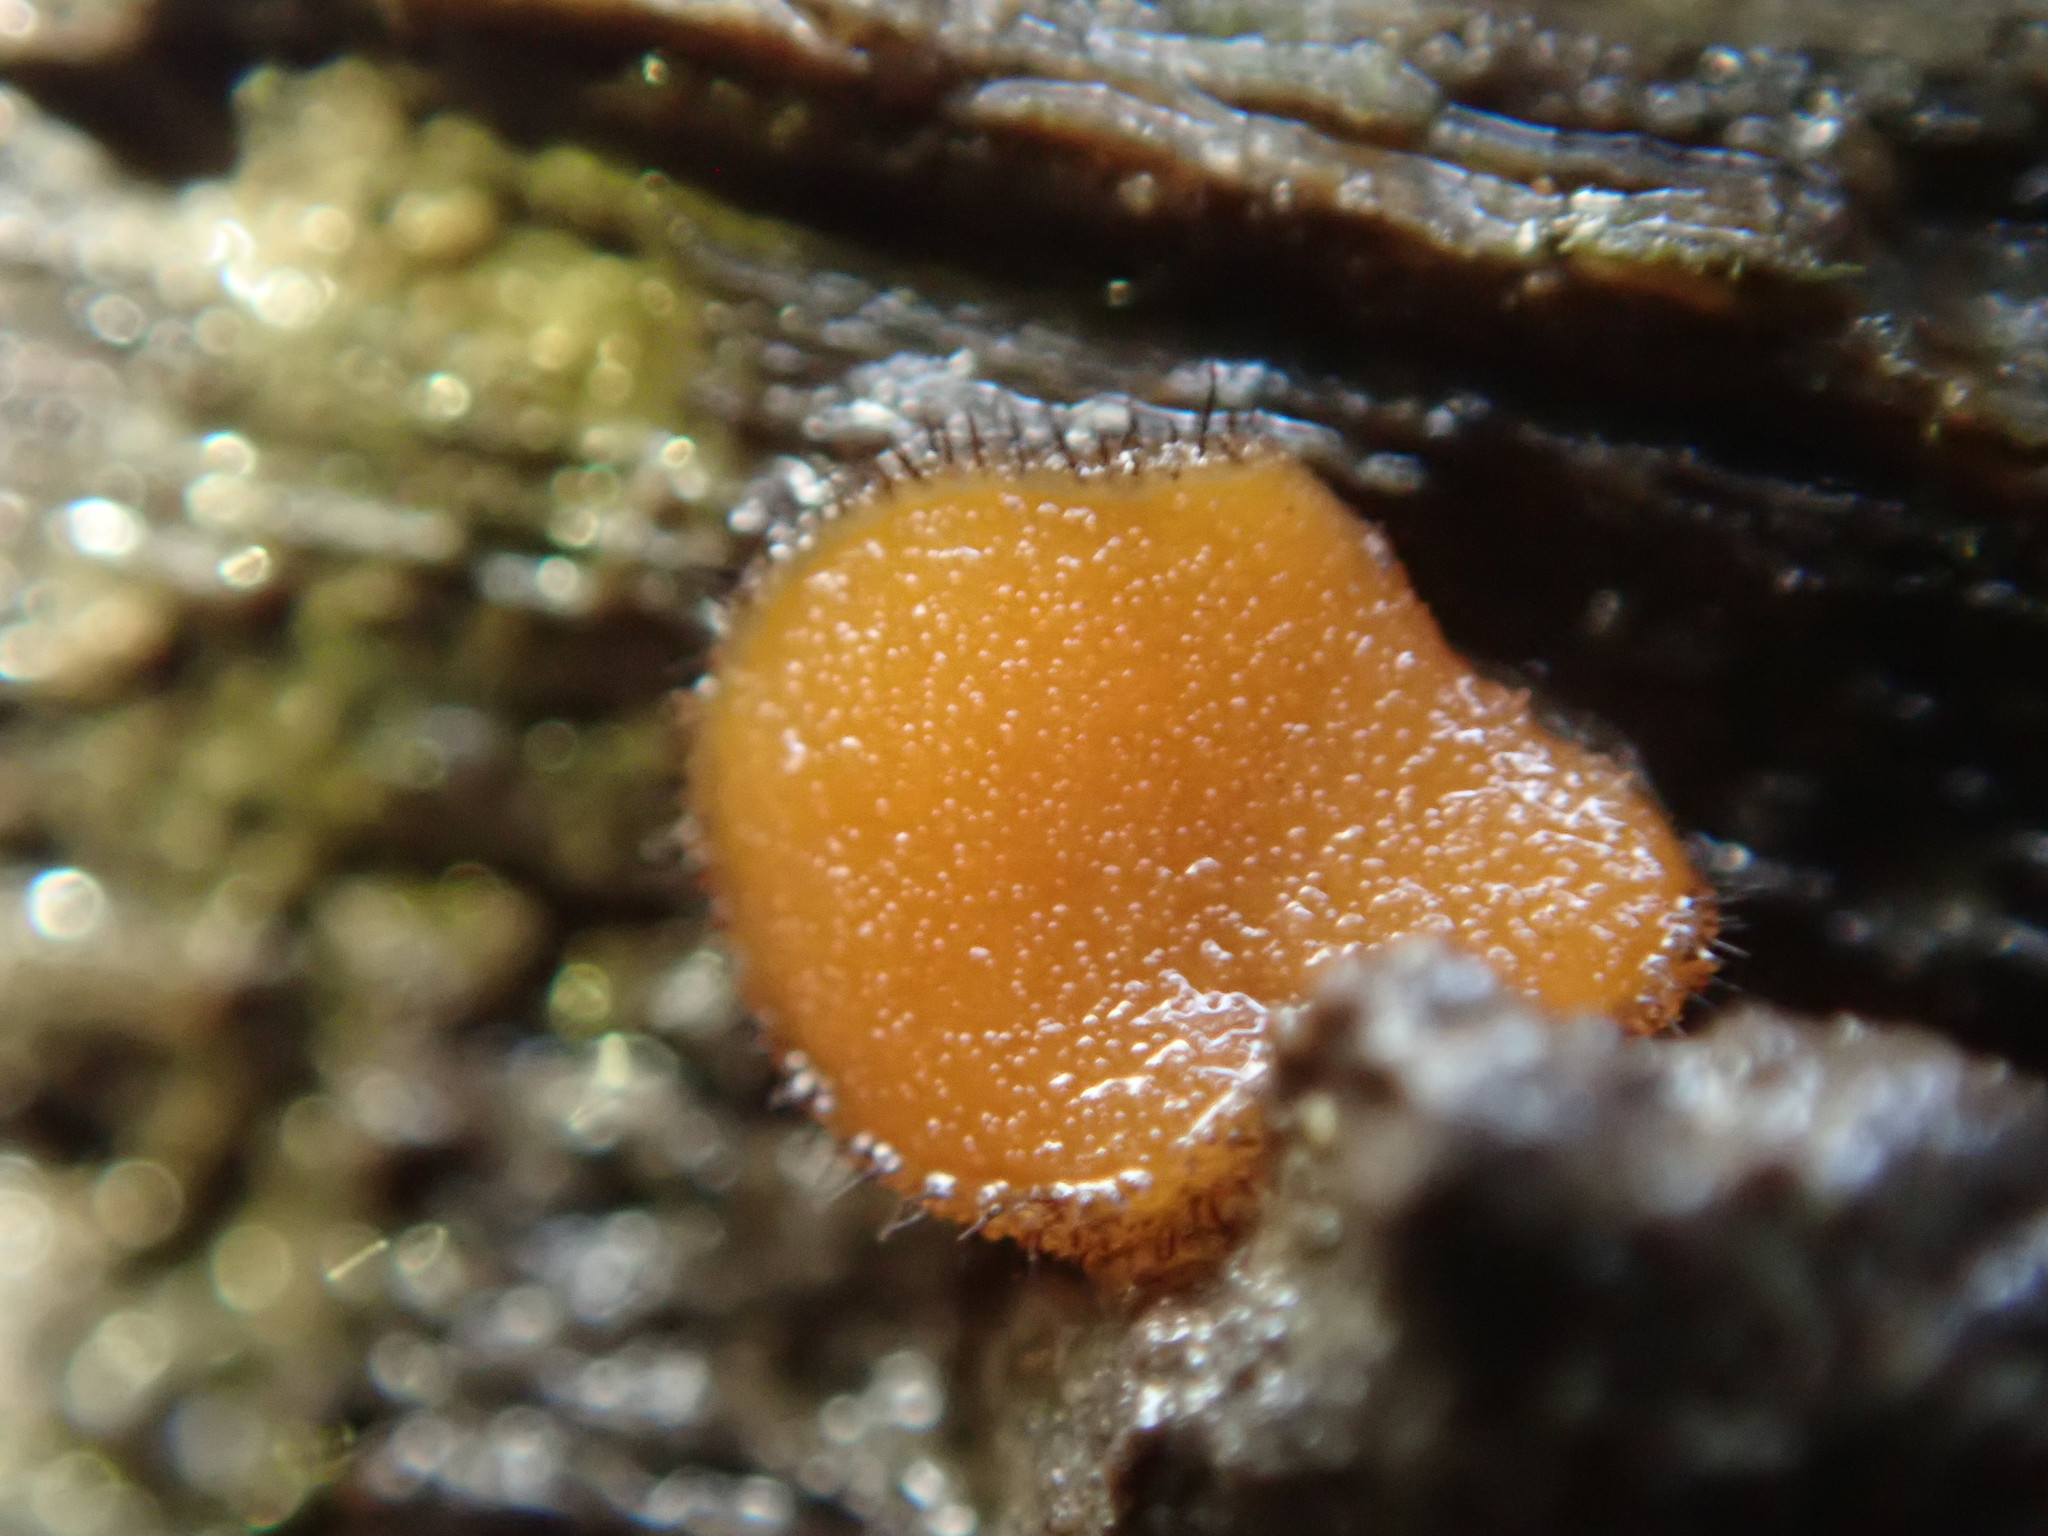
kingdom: Fungi
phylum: Ascomycota
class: Pezizomycetes
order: Pezizales
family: Pyronemataceae
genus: Scutellinia
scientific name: Scutellinia scutellata
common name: Common eyelash
